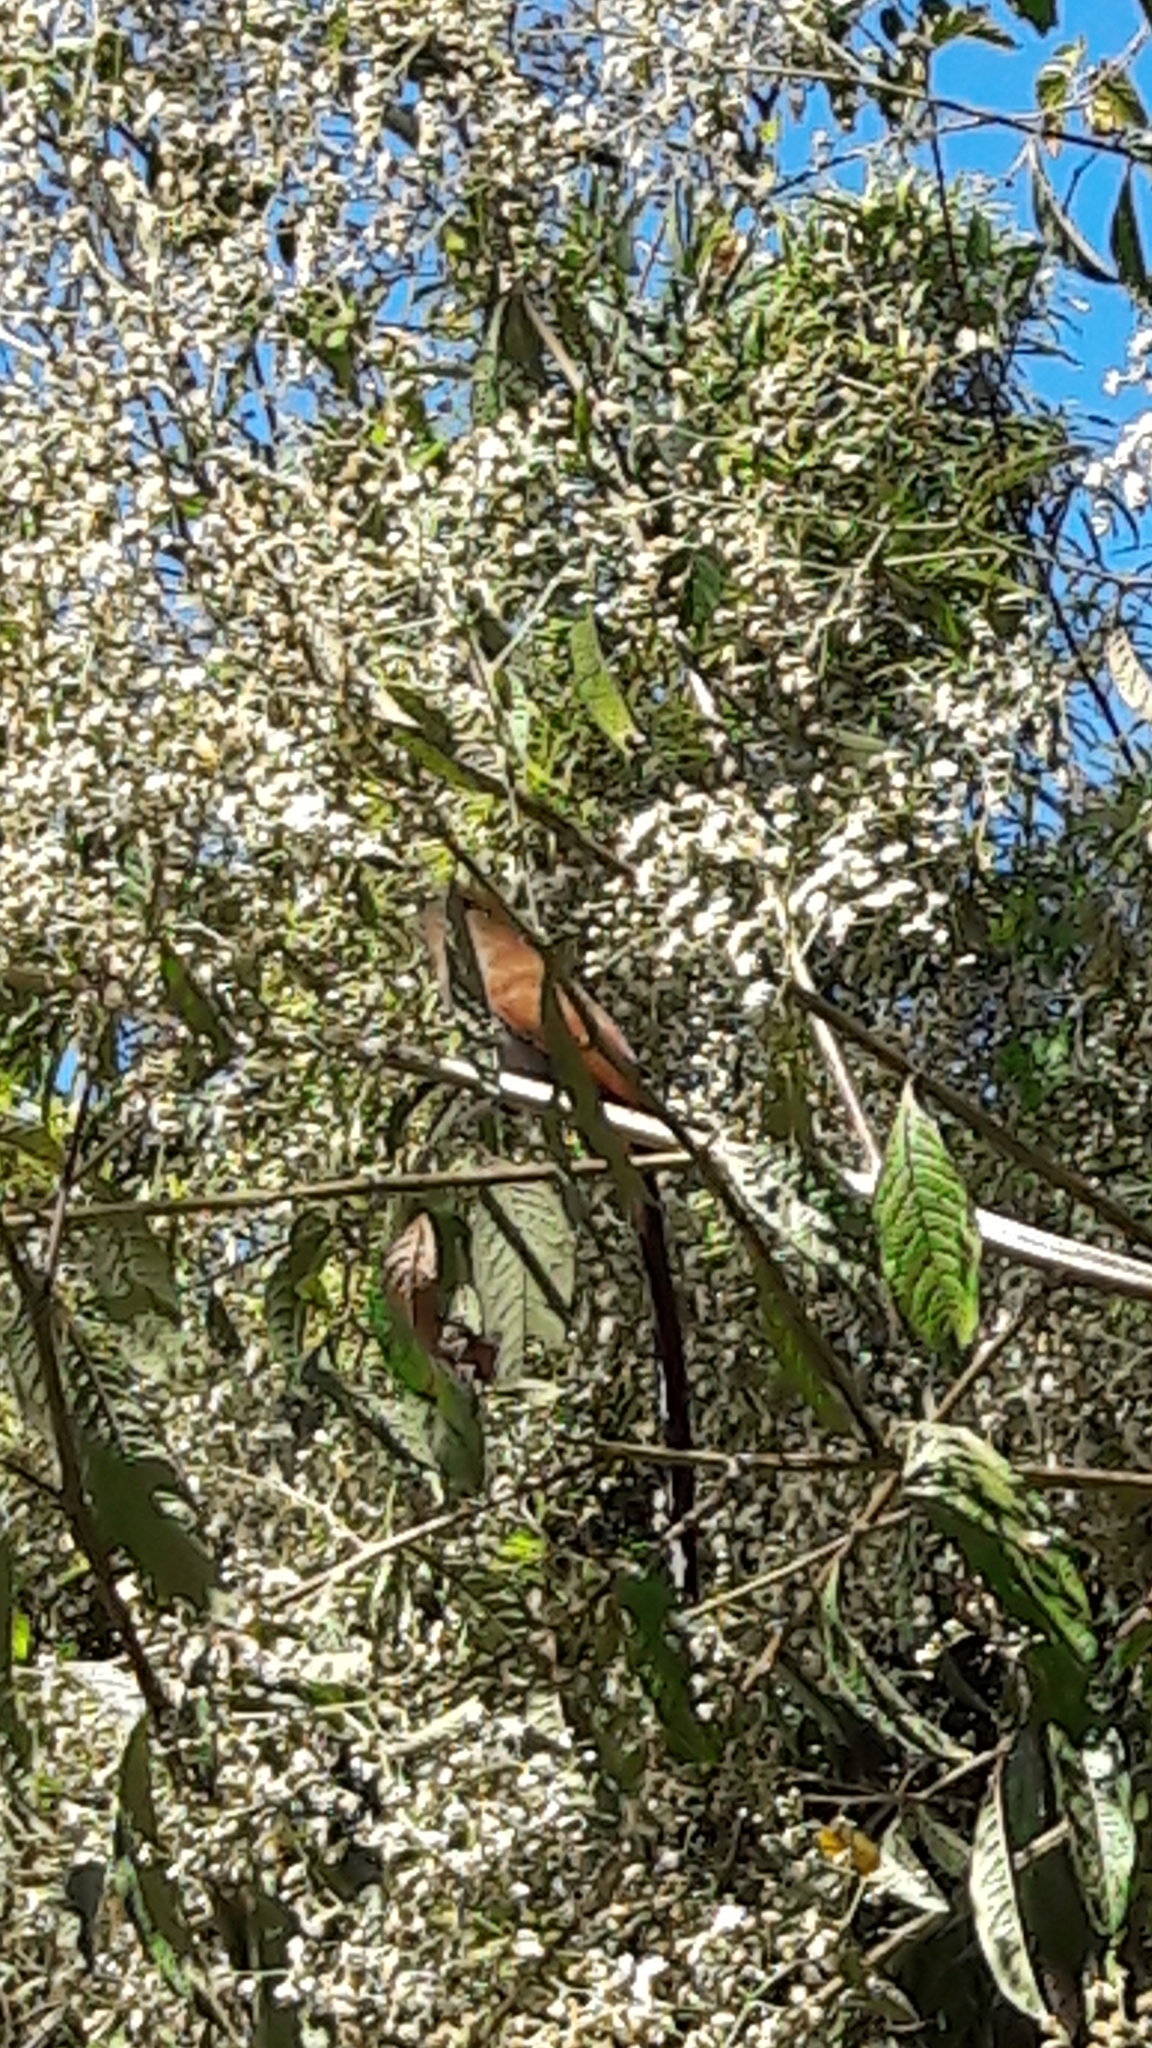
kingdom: Animalia
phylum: Chordata
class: Aves
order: Cuculiformes
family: Cuculidae
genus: Piaya
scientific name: Piaya cayana
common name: Squirrel cuckoo
